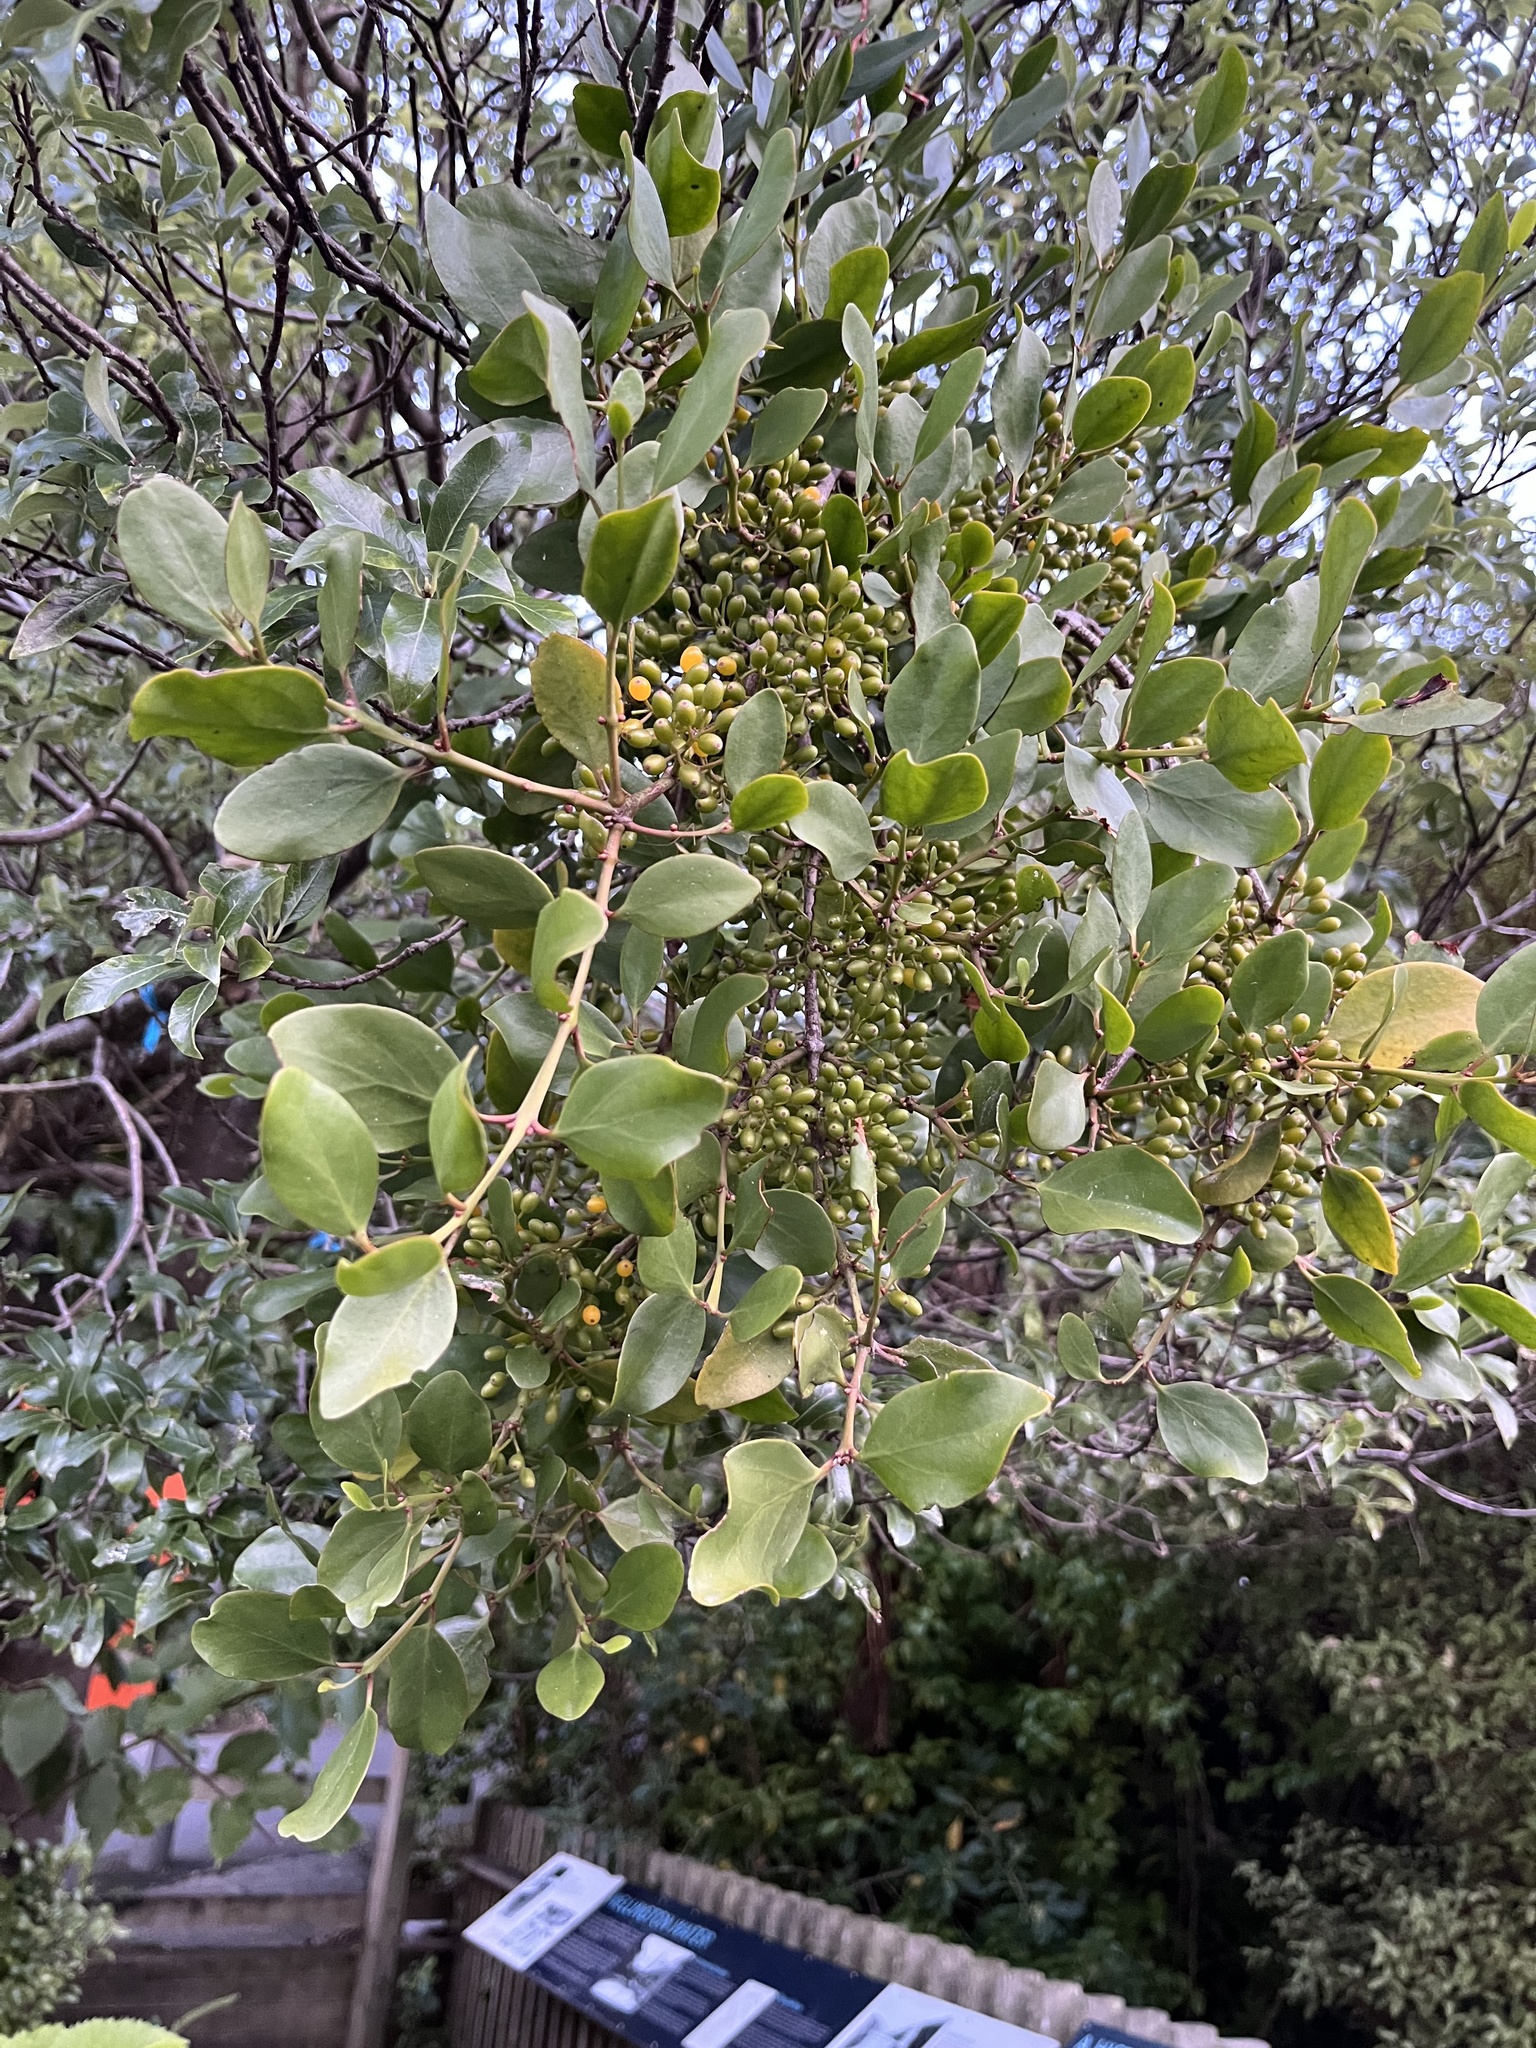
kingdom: Plantae
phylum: Tracheophyta
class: Magnoliopsida
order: Santalales
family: Loranthaceae
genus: Ileostylus
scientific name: Ileostylus micranthus
